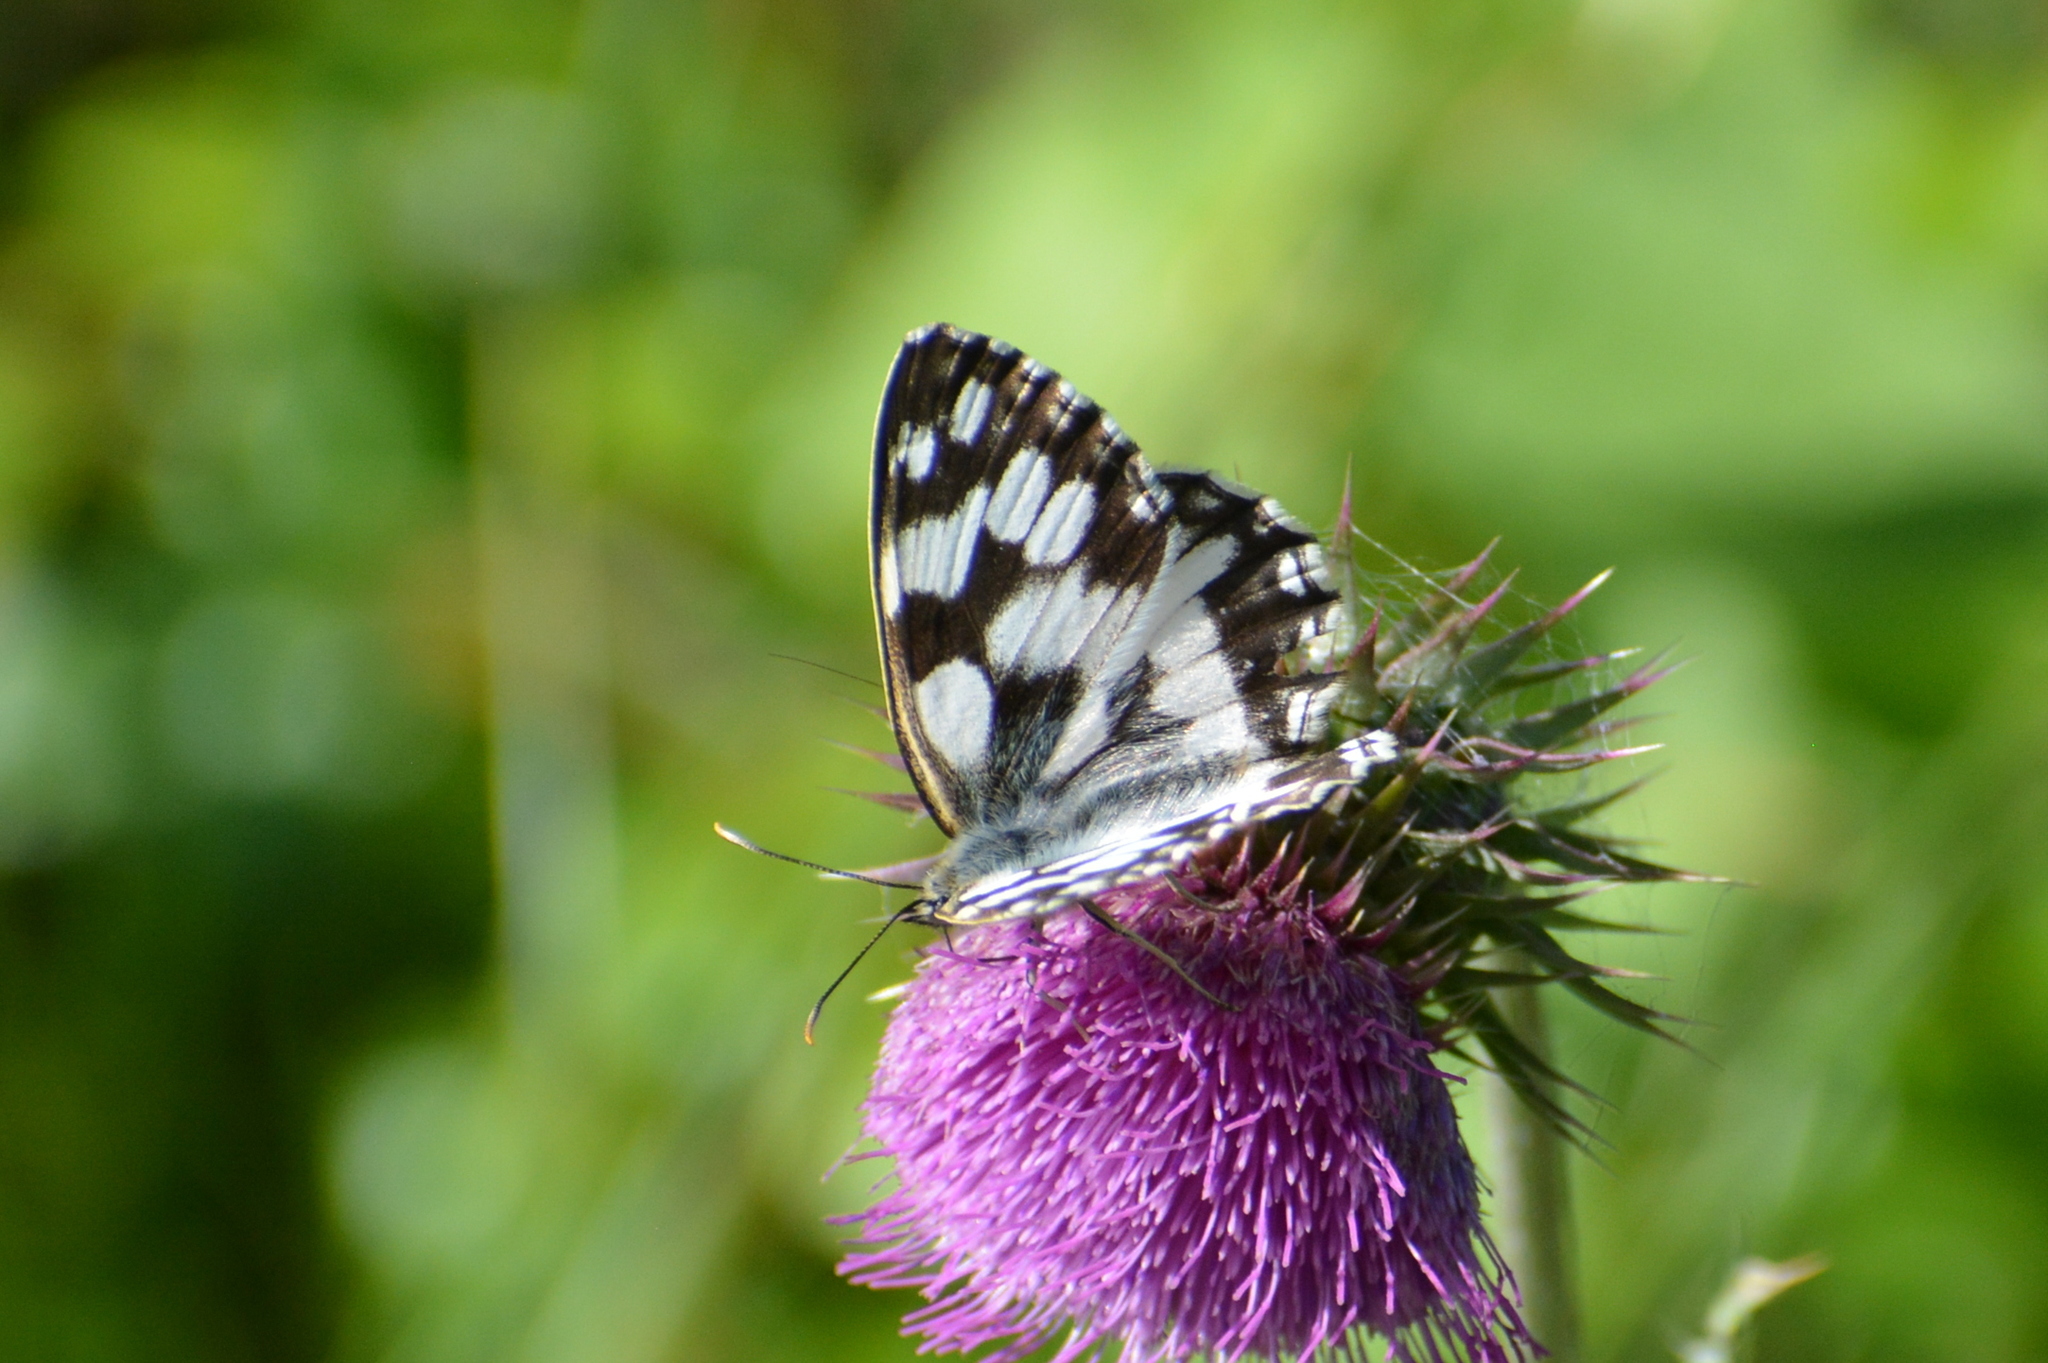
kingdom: Animalia
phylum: Arthropoda
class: Insecta
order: Lepidoptera
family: Nymphalidae
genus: Melanargia
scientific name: Melanargia galathea
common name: Marbled white
